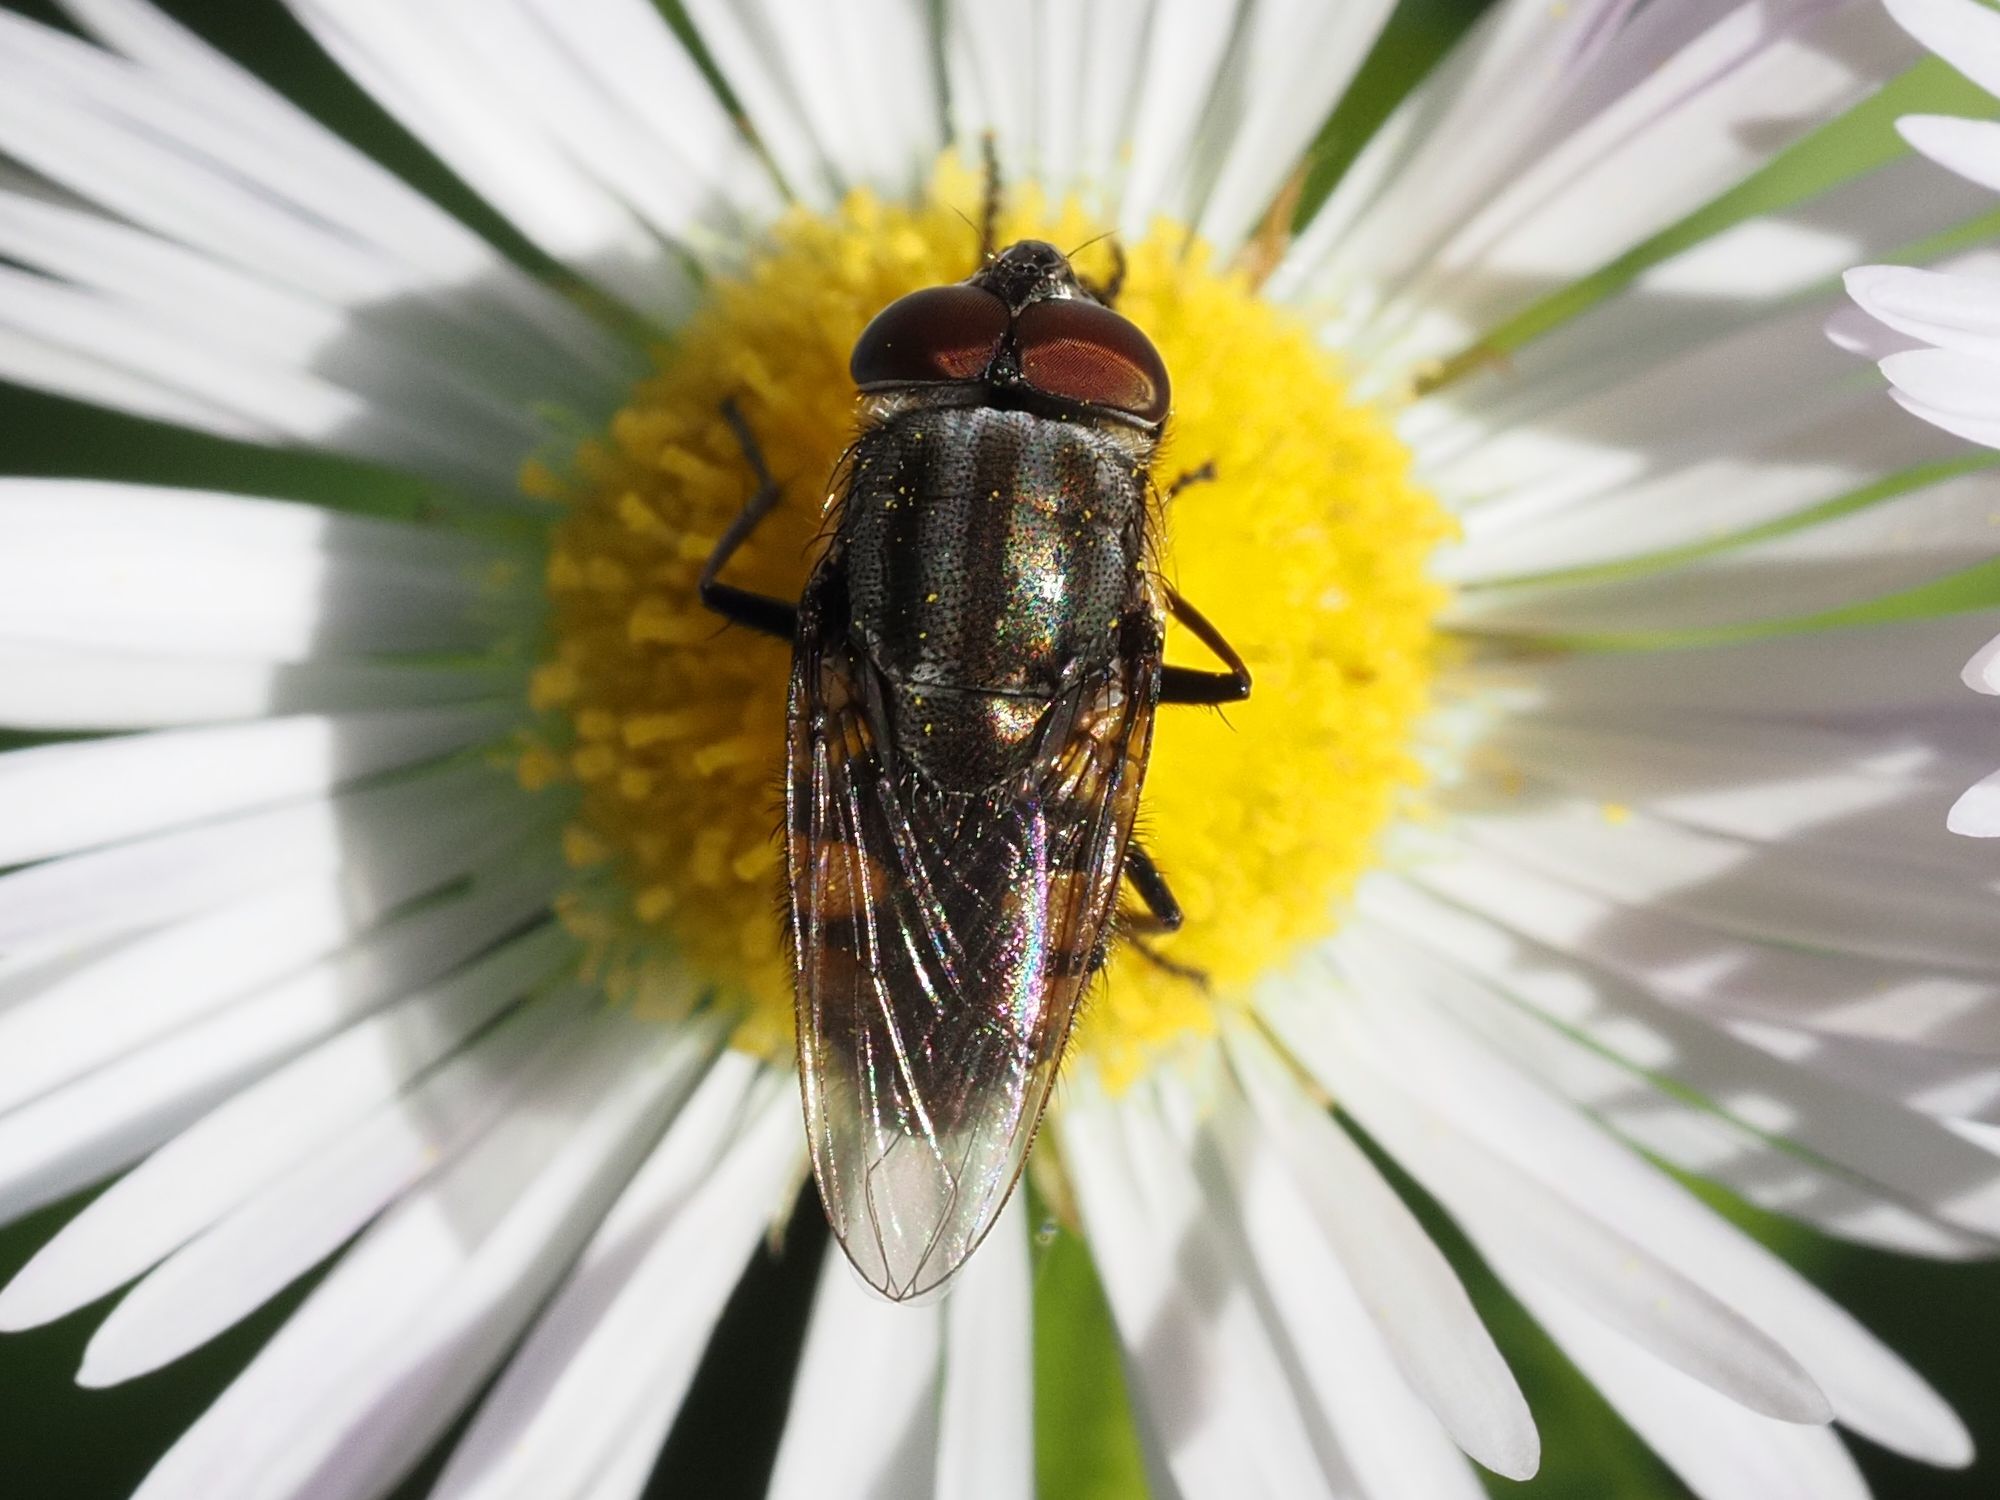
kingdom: Animalia
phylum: Arthropoda
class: Insecta
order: Diptera
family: Calliphoridae
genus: Stomorhina
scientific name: Stomorhina lunata
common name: Locust blowfly
